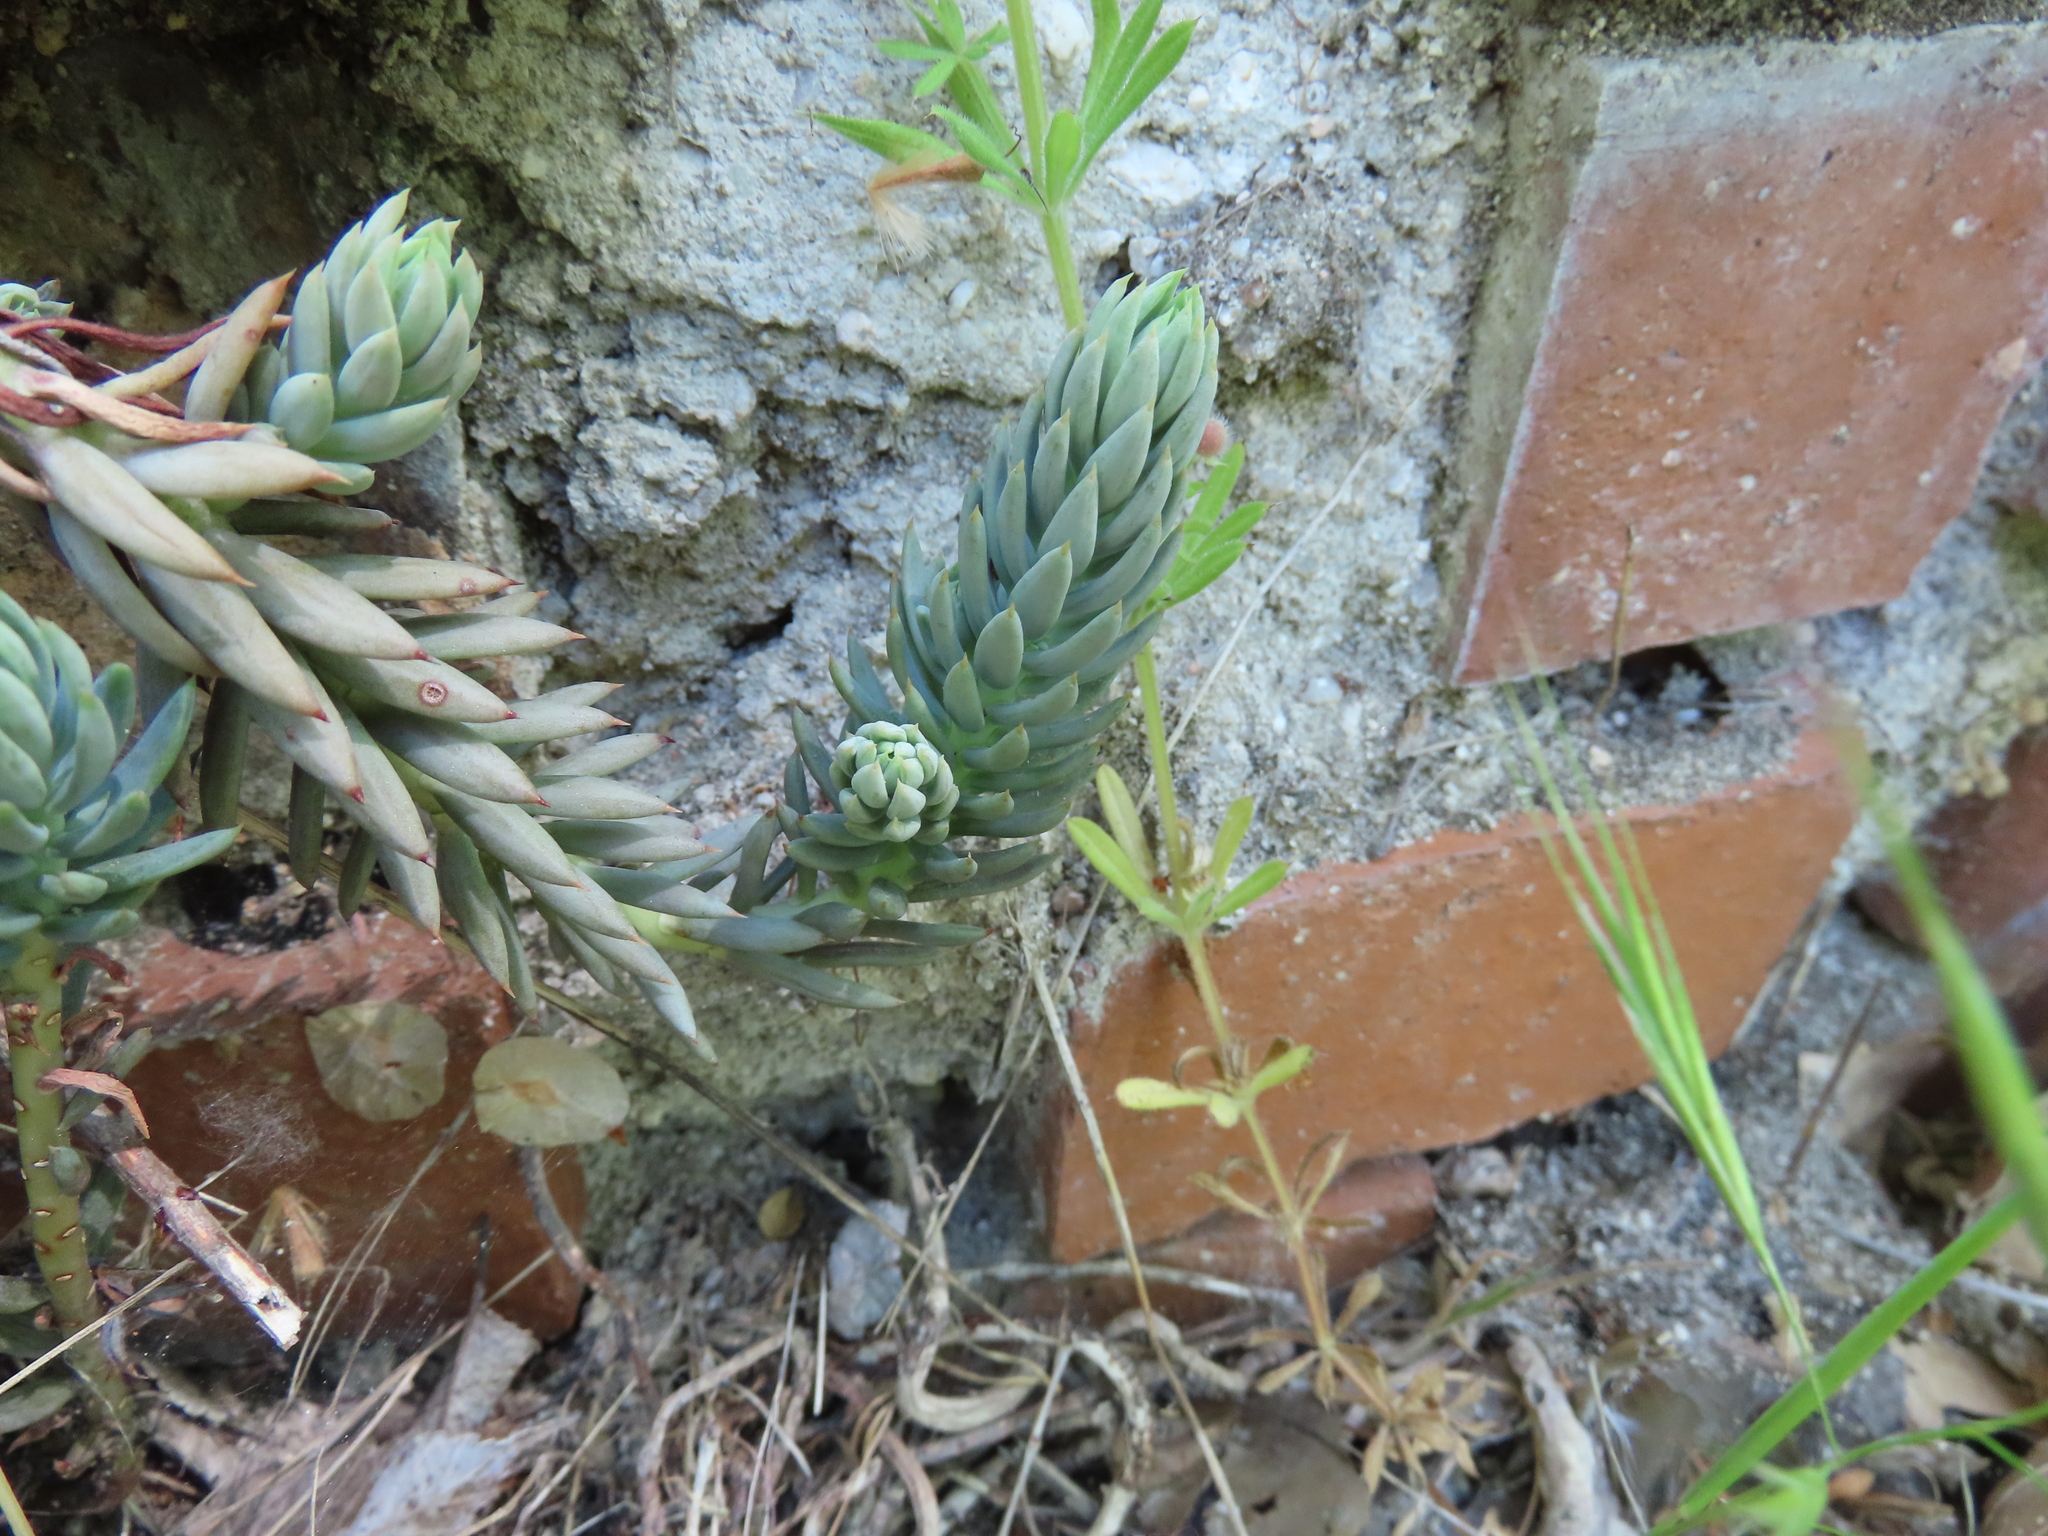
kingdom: Plantae
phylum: Tracheophyta
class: Magnoliopsida
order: Saxifragales
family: Crassulaceae
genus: Petrosedum
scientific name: Petrosedum sediforme
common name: Pale stonecrop
